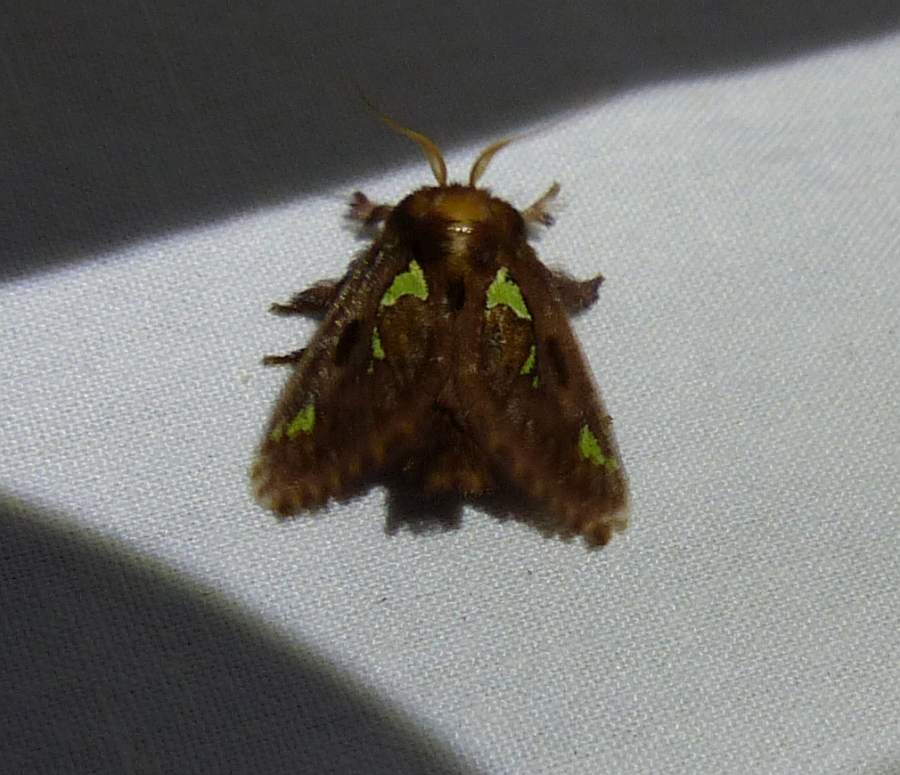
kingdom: Animalia
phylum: Arthropoda
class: Insecta
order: Lepidoptera
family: Limacodidae
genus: Euclea
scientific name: Euclea delphinii
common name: Spiny oak-slug moth
